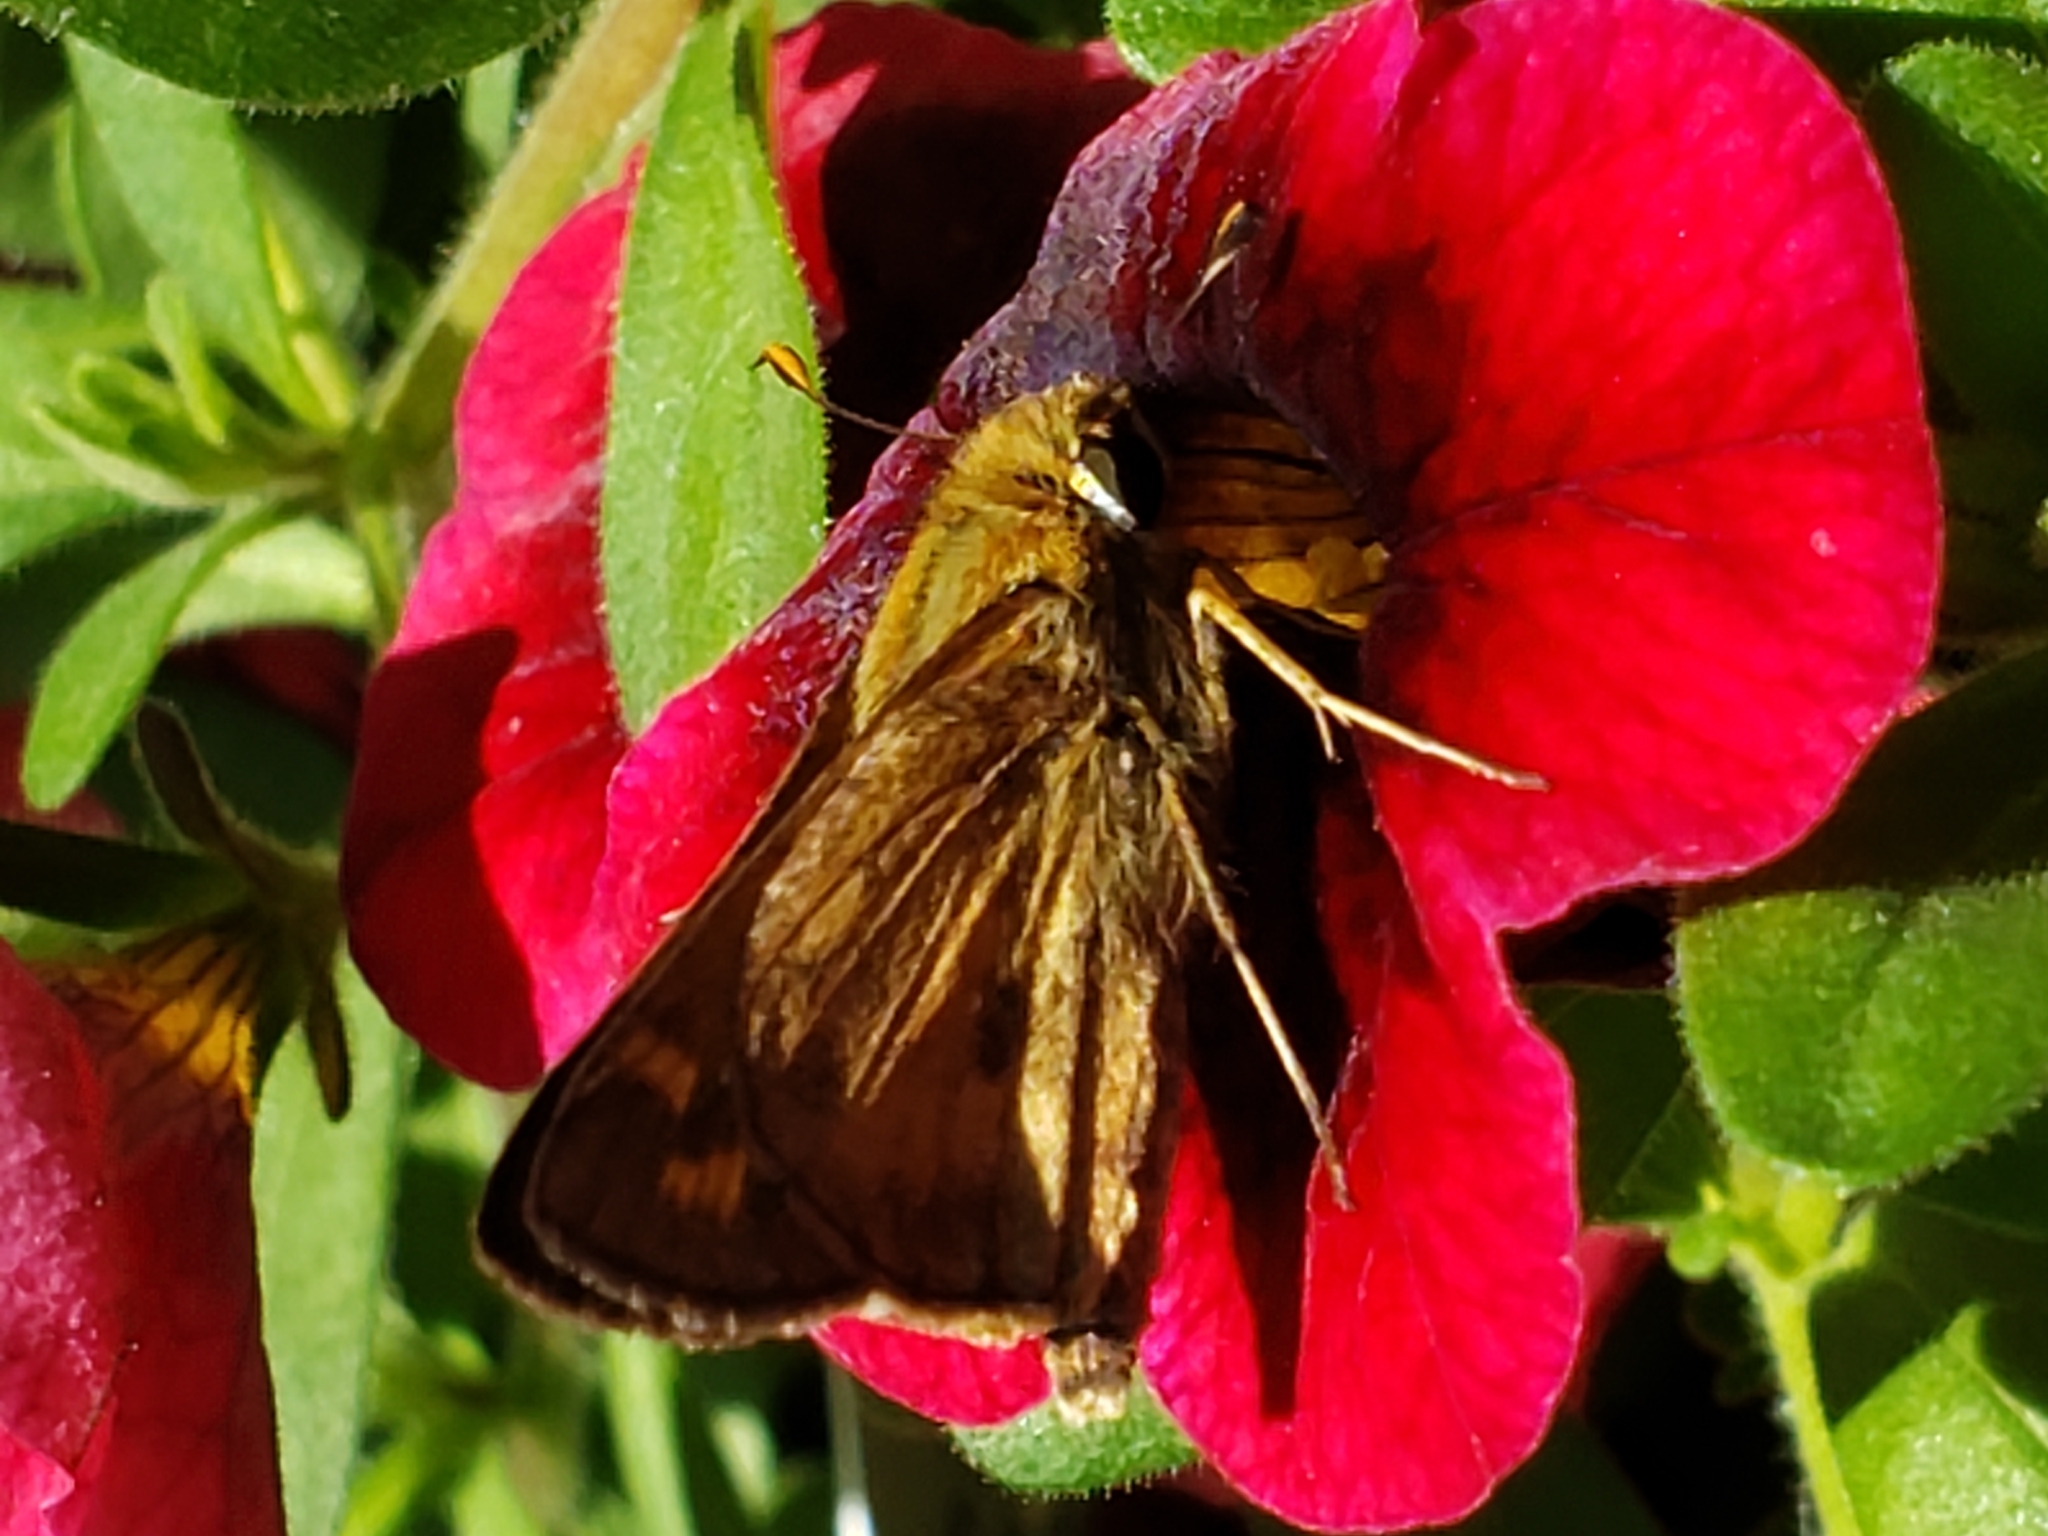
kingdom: Animalia
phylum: Arthropoda
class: Insecta
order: Lepidoptera
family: Hesperiidae
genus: Atalopedes
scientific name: Atalopedes
